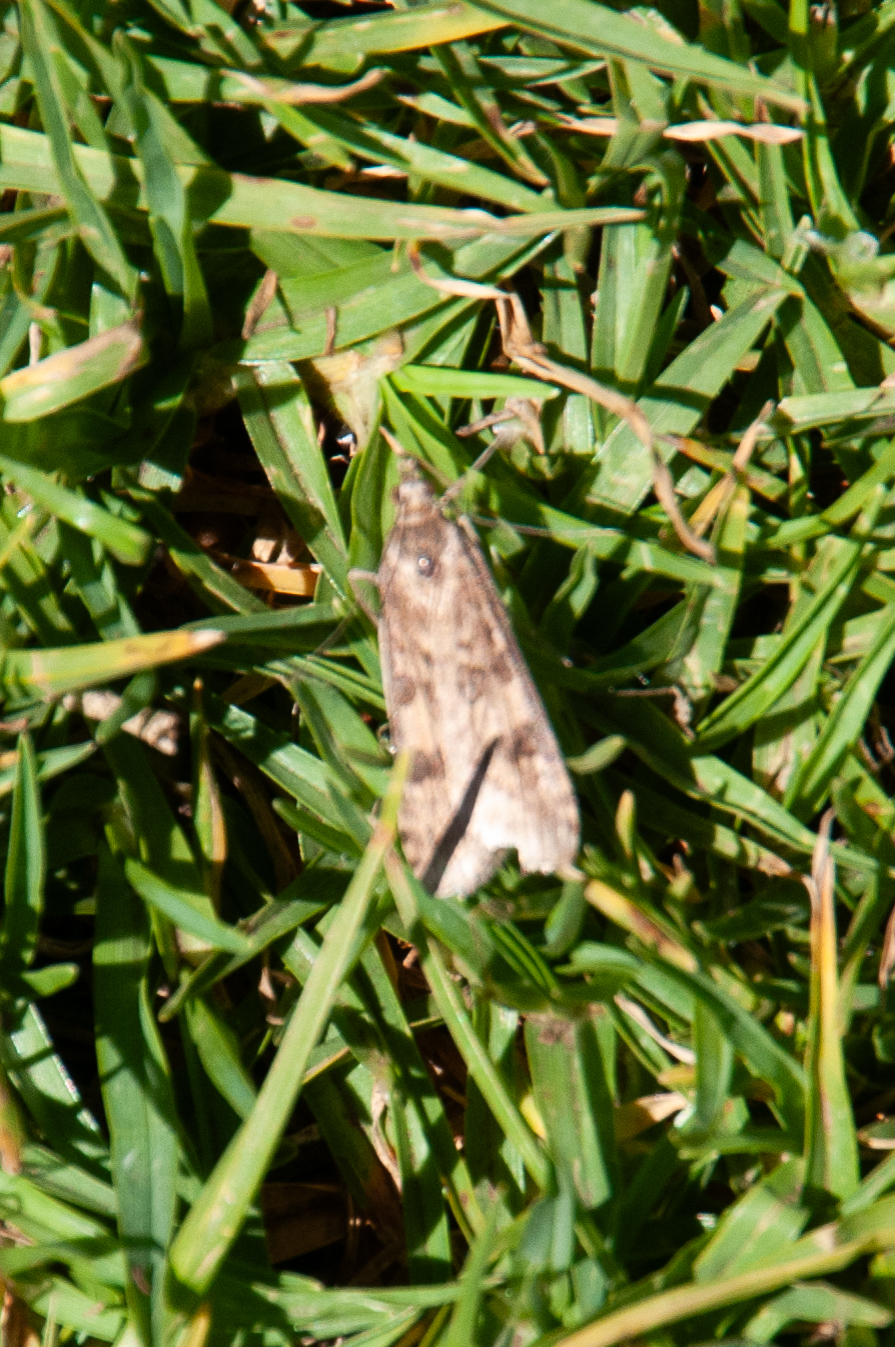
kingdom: Animalia
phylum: Arthropoda
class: Insecta
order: Lepidoptera
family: Crambidae
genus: Nomophila
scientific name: Nomophila noctuella
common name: Rush veneer
